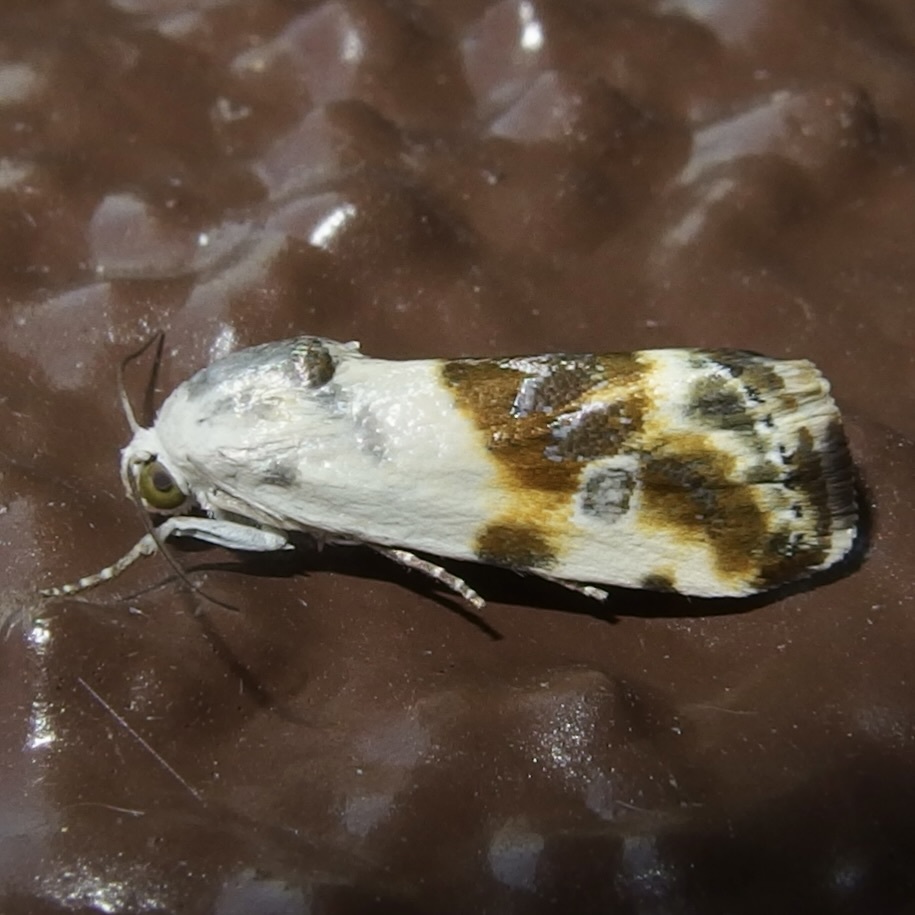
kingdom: Animalia
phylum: Arthropoda
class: Insecta
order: Lepidoptera
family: Noctuidae
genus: Acontia
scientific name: Acontia candefacta
